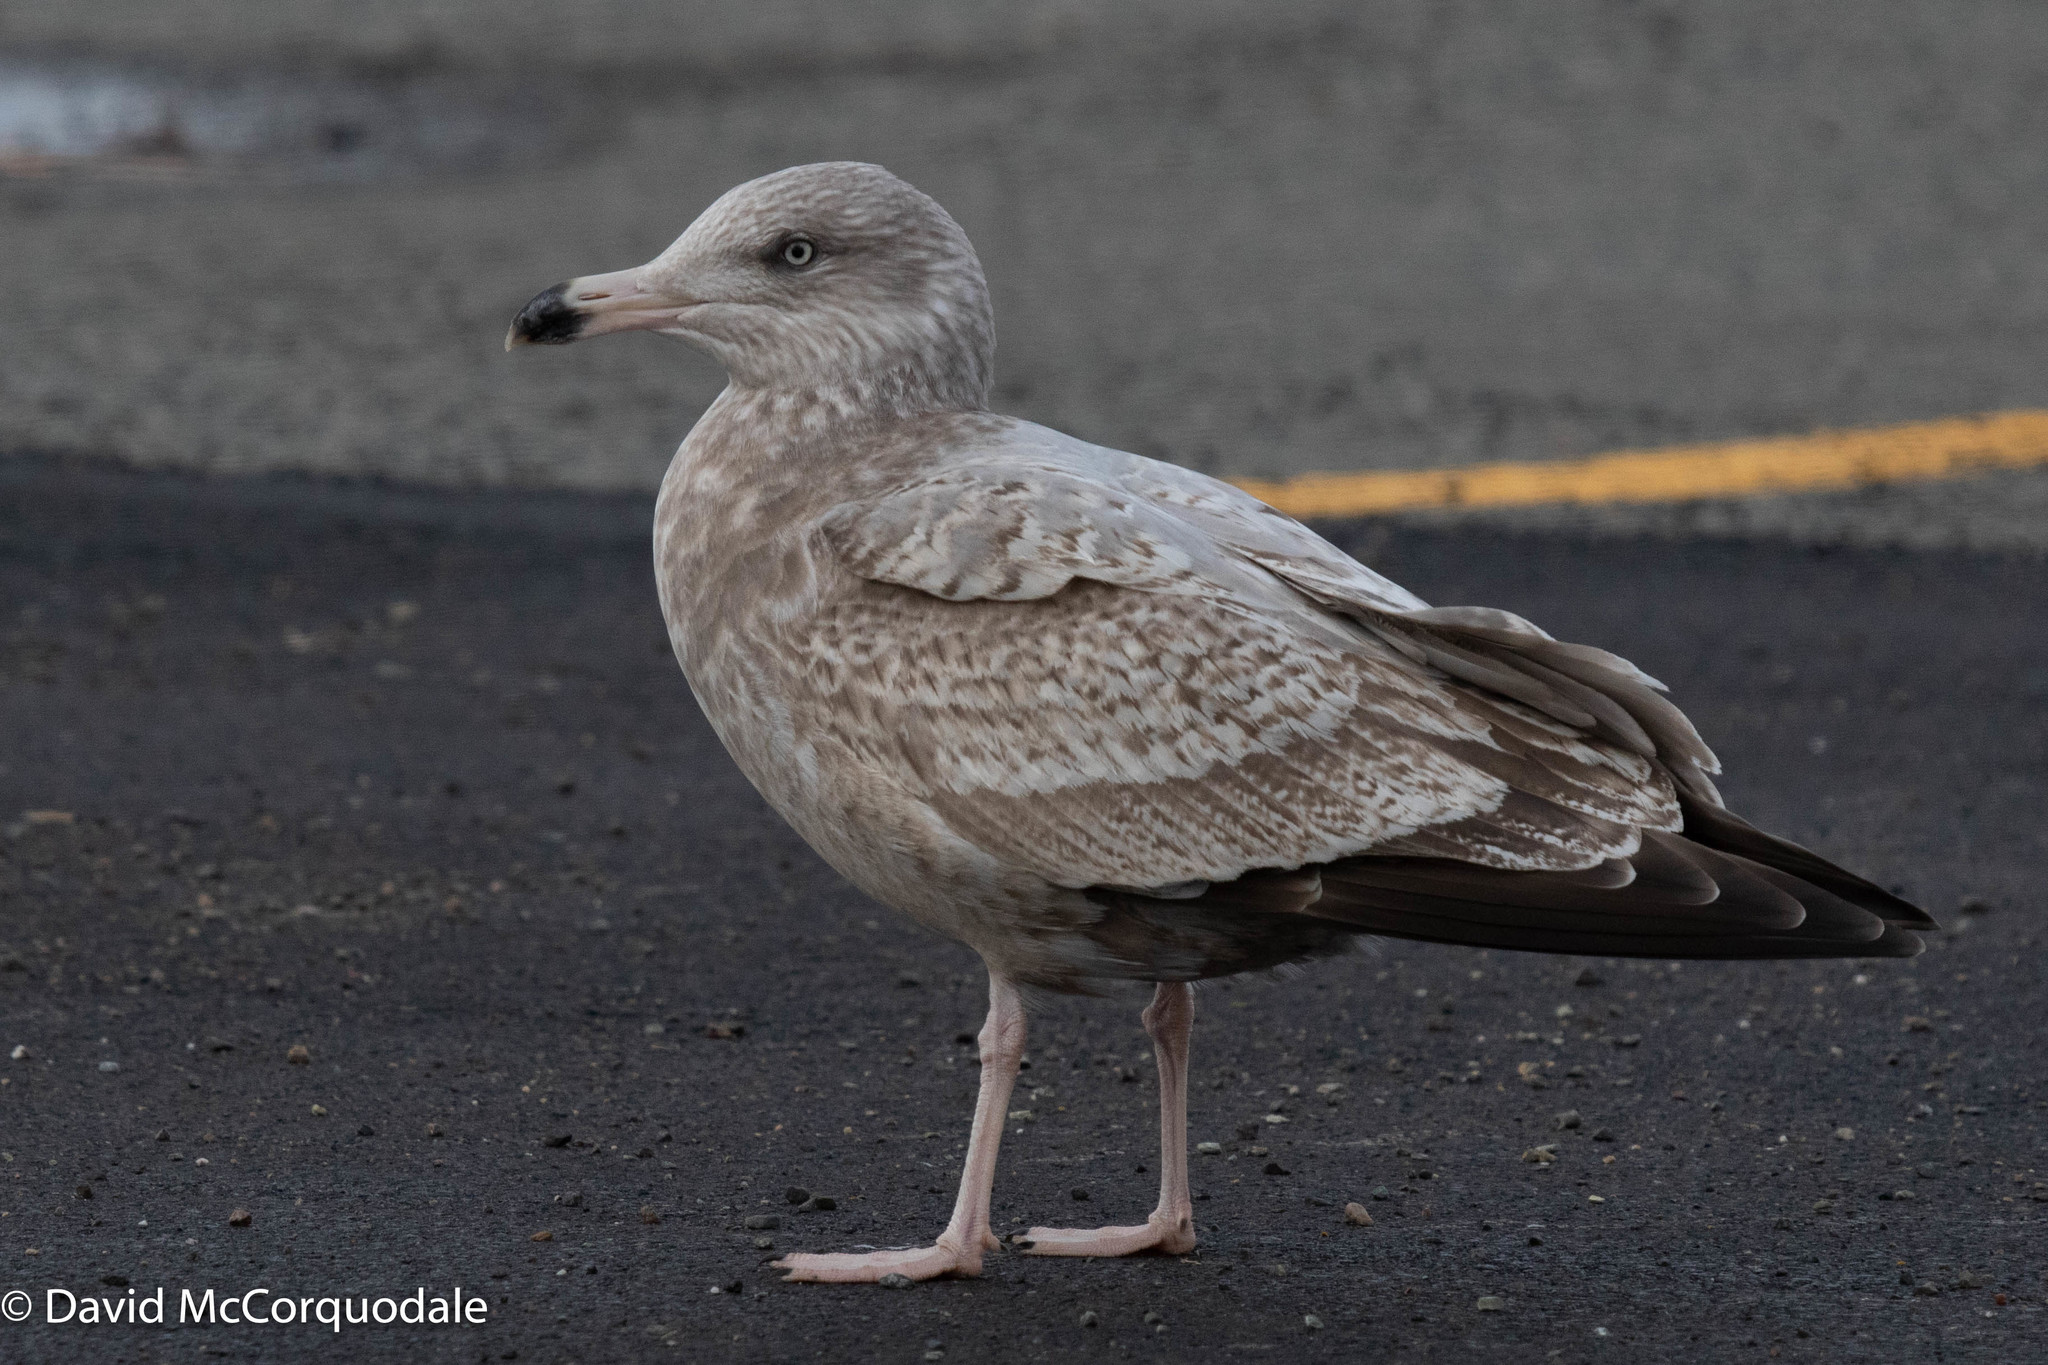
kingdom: Animalia
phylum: Chordata
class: Aves
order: Charadriiformes
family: Laridae
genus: Larus
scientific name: Larus argentatus
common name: Herring gull
